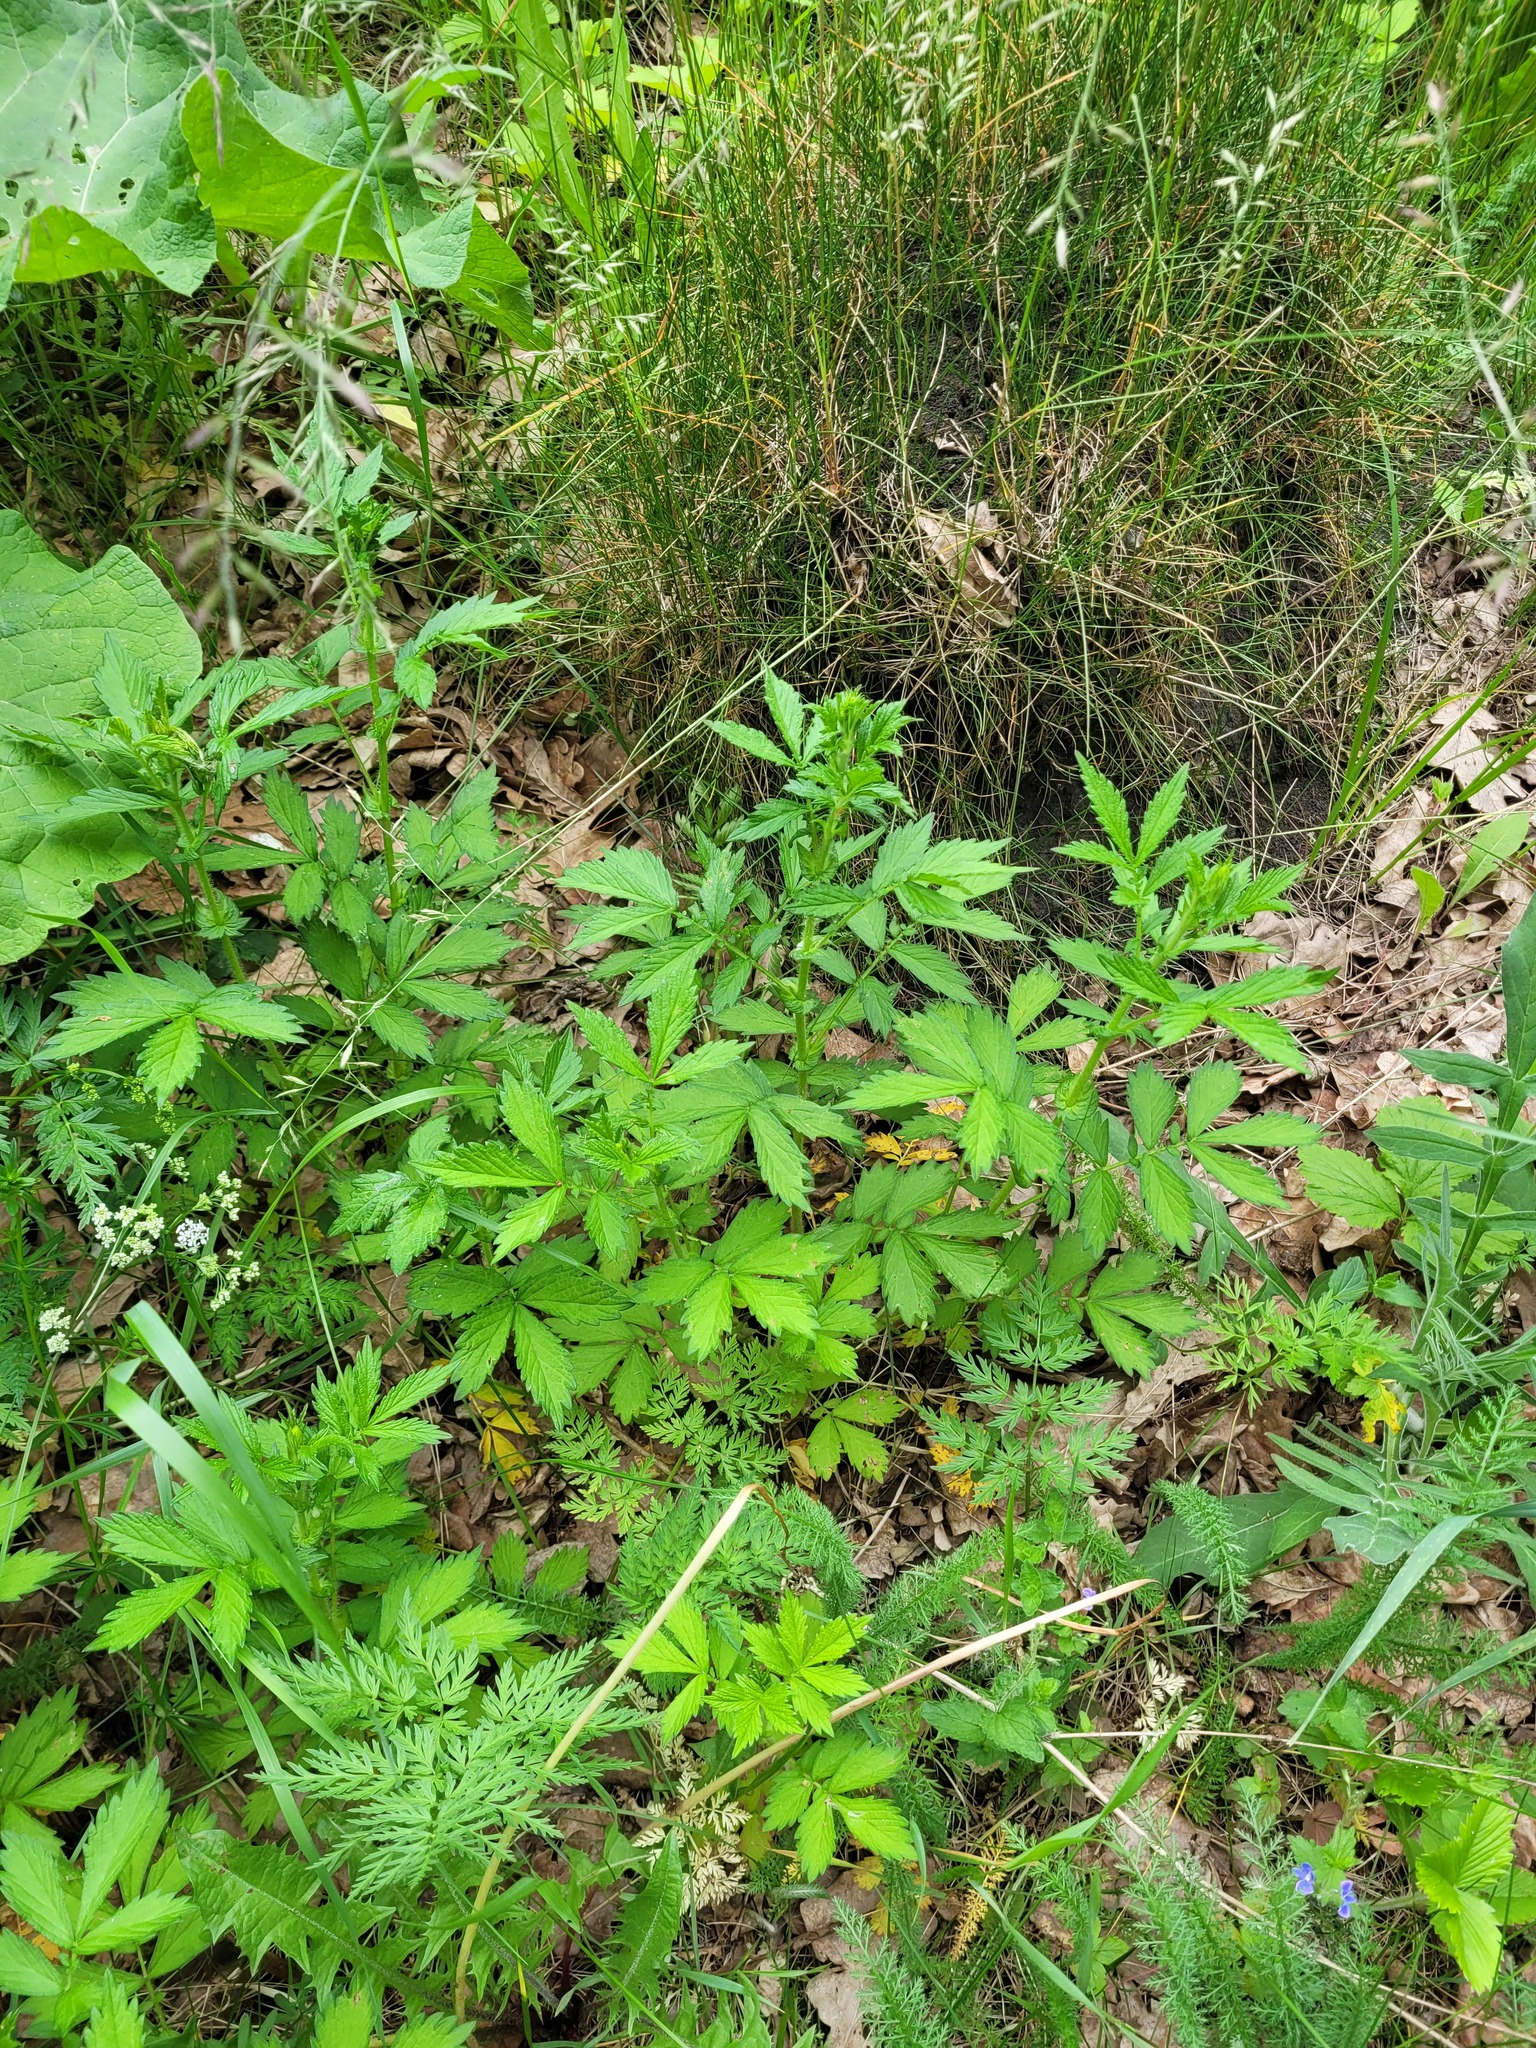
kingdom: Plantae
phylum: Tracheophyta
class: Magnoliopsida
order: Rosales
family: Rosaceae
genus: Agrimonia
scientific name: Agrimonia pilosa
